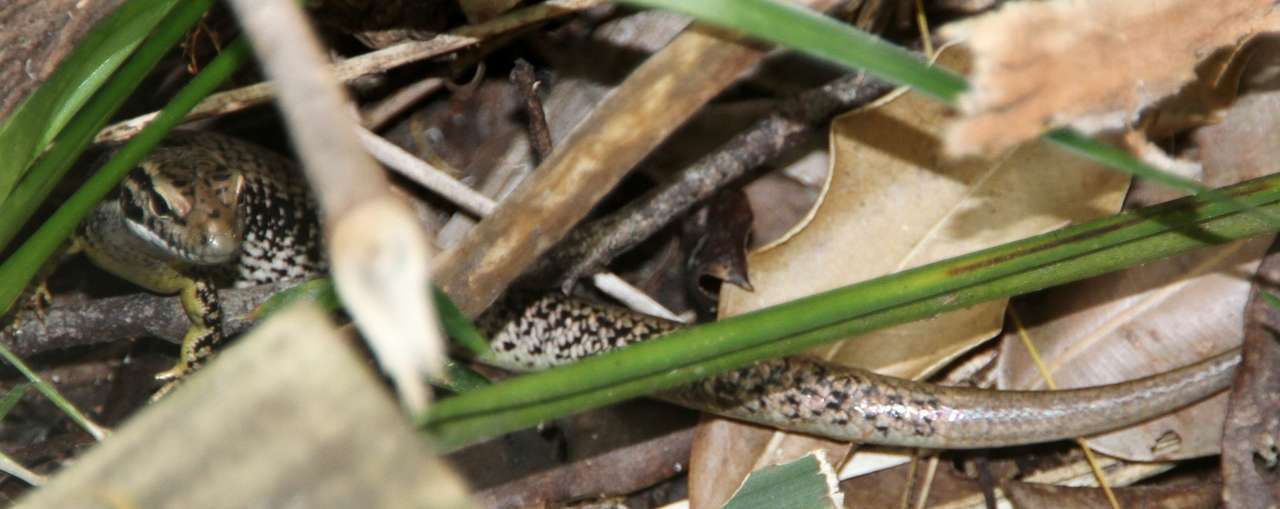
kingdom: Animalia
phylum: Chordata
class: Squamata
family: Scincidae
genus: Eulamprus
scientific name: Eulamprus heatwolei
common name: Warm-temperate water-skink
